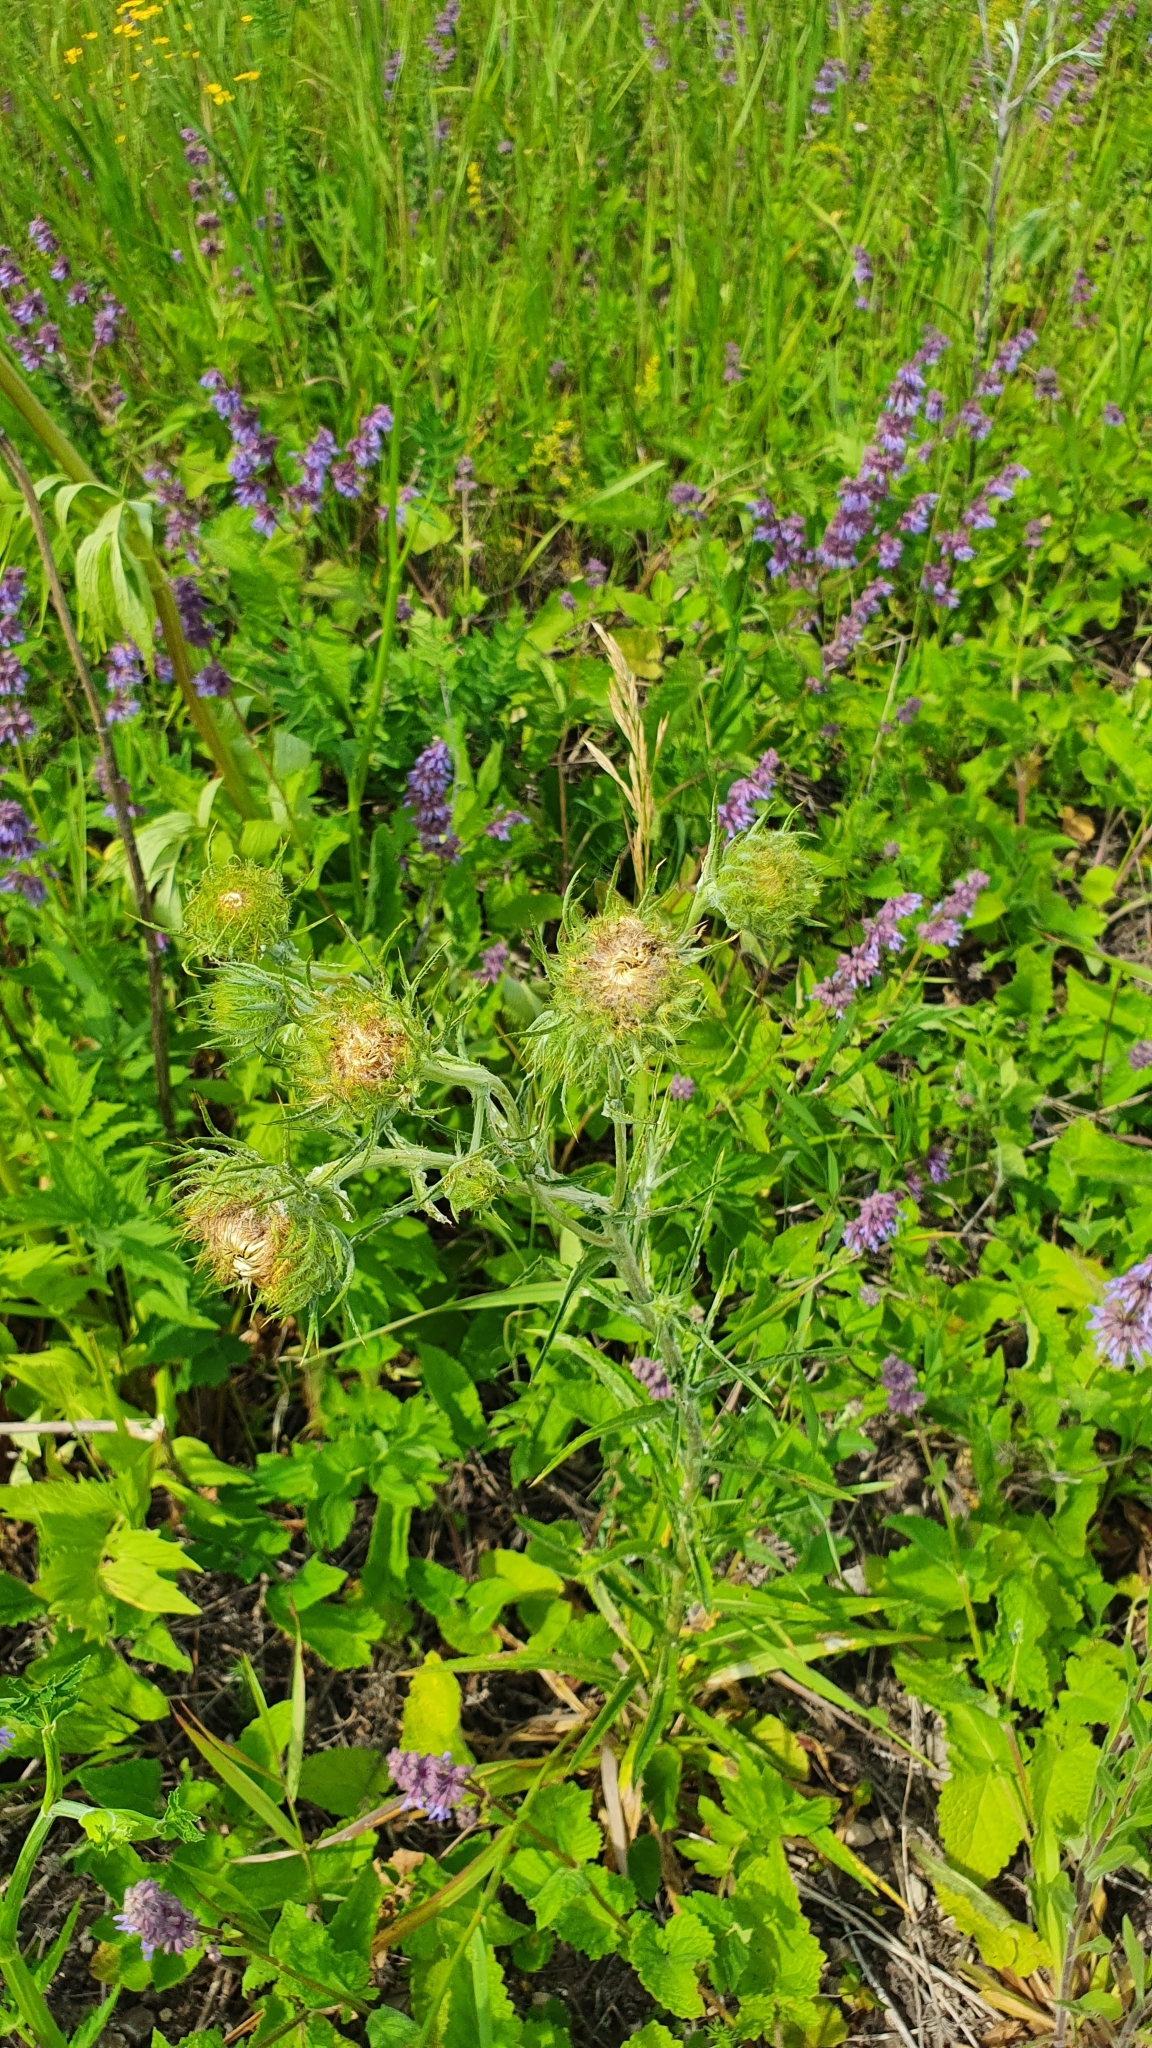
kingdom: Plantae
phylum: Tracheophyta
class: Magnoliopsida
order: Asterales
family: Asteraceae
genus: Carlina
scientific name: Carlina biebersteinii
